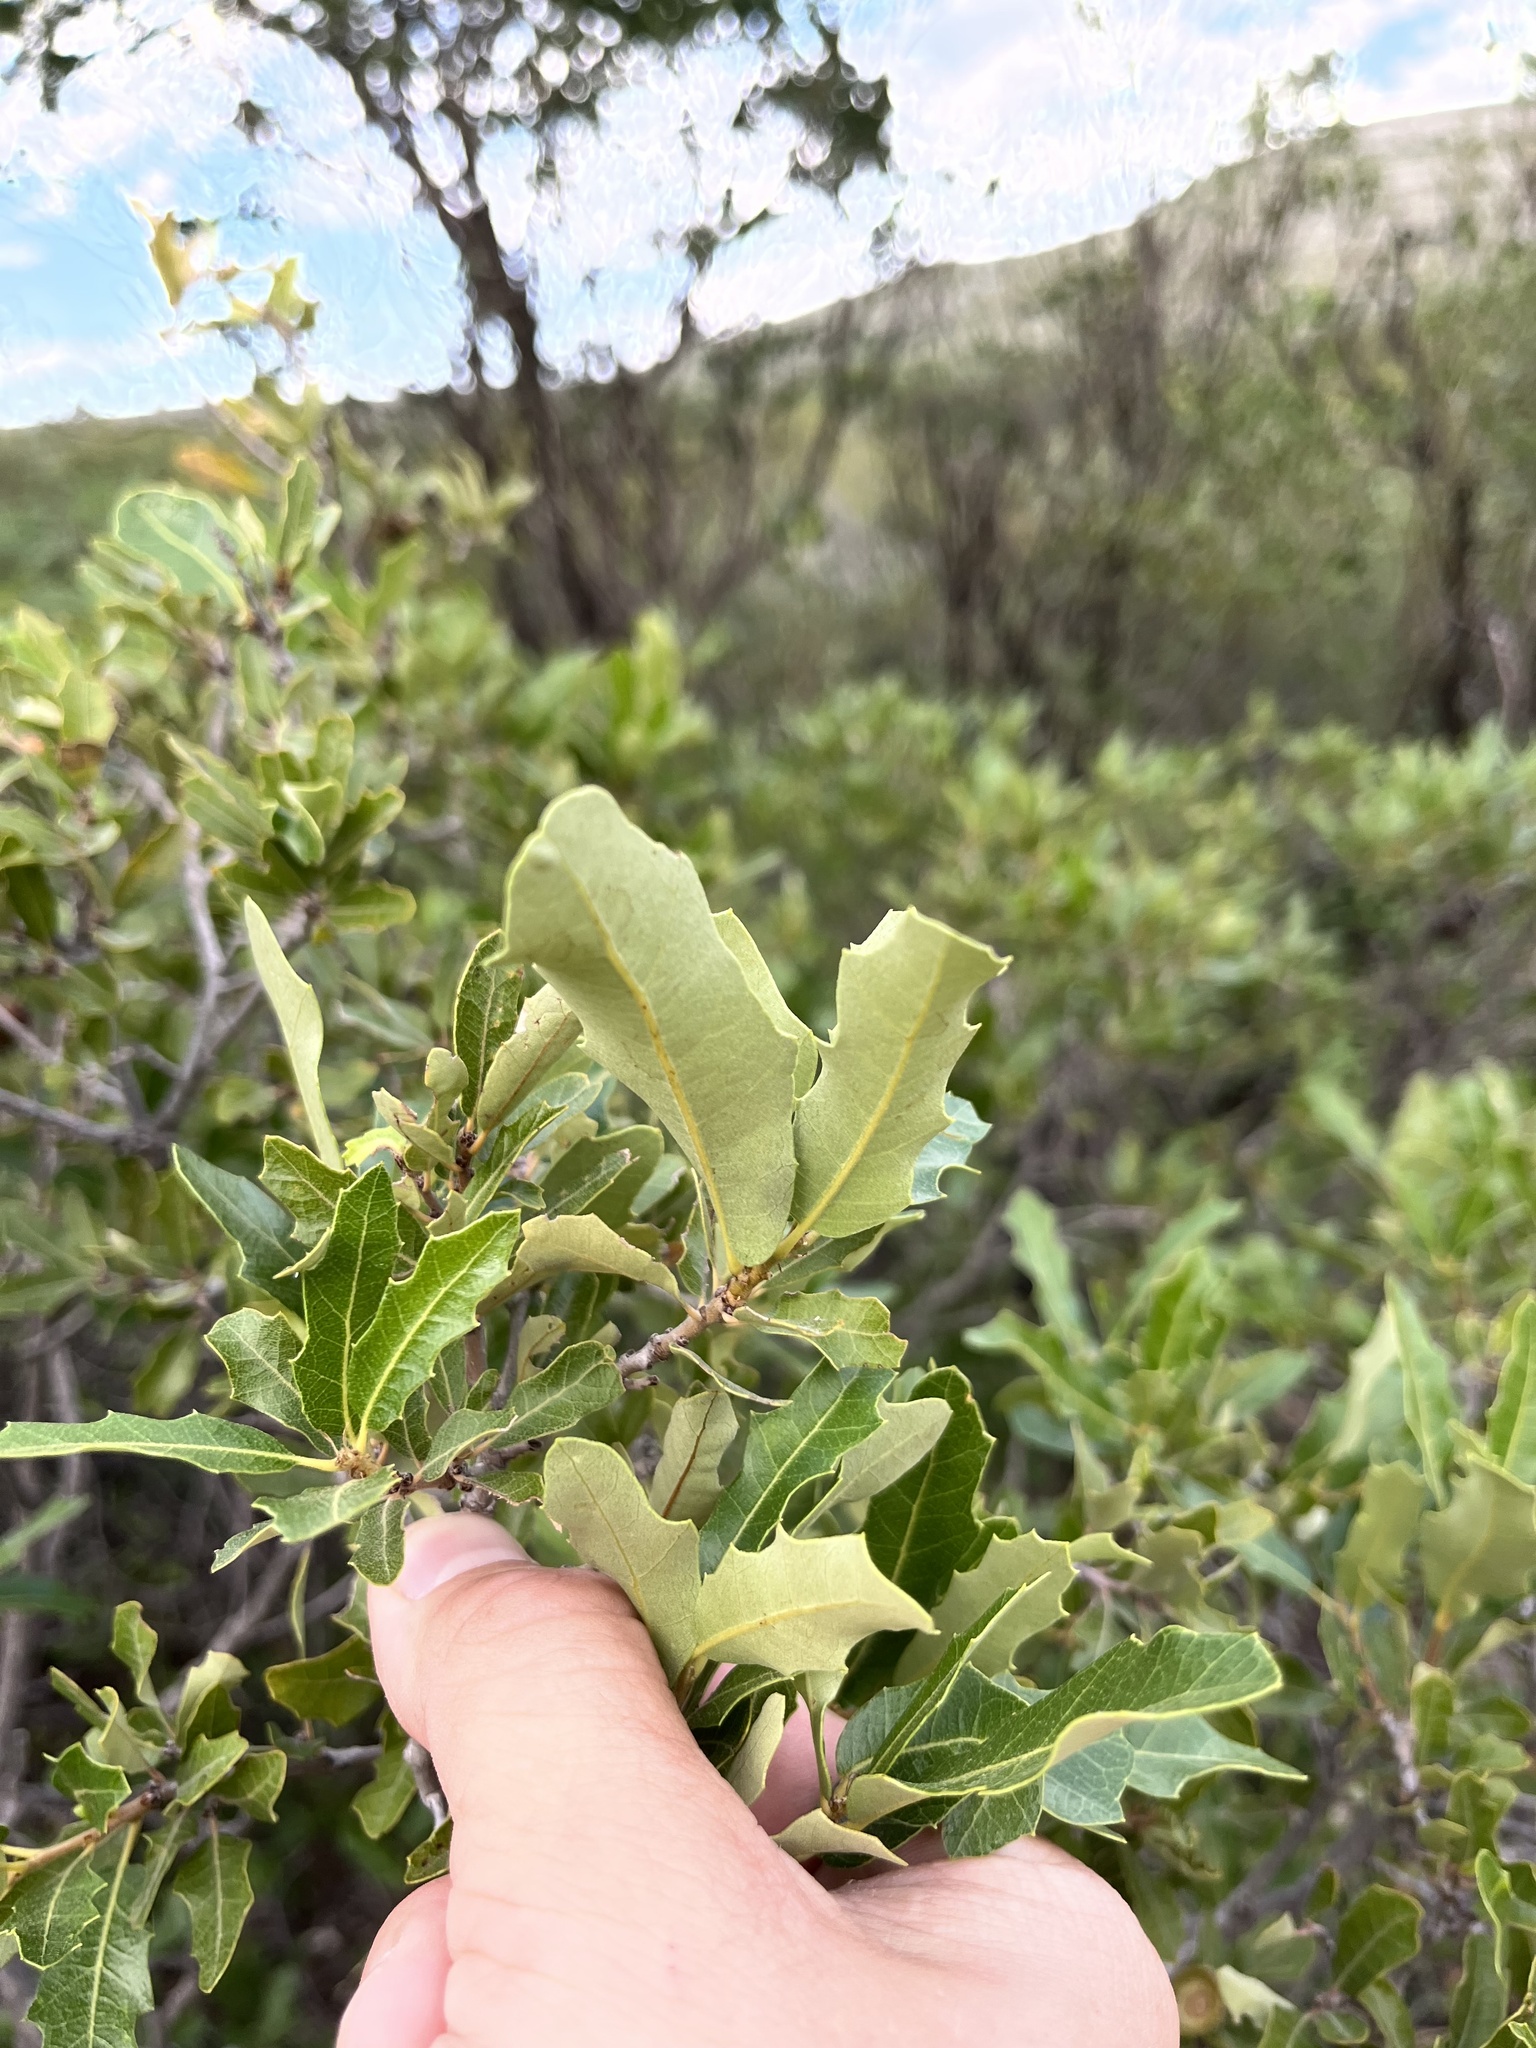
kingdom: Plantae
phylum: Tracheophyta
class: Magnoliopsida
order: Fagales
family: Fagaceae
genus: Quercus
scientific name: Quercus vaseyana
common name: Sandpaper oak
